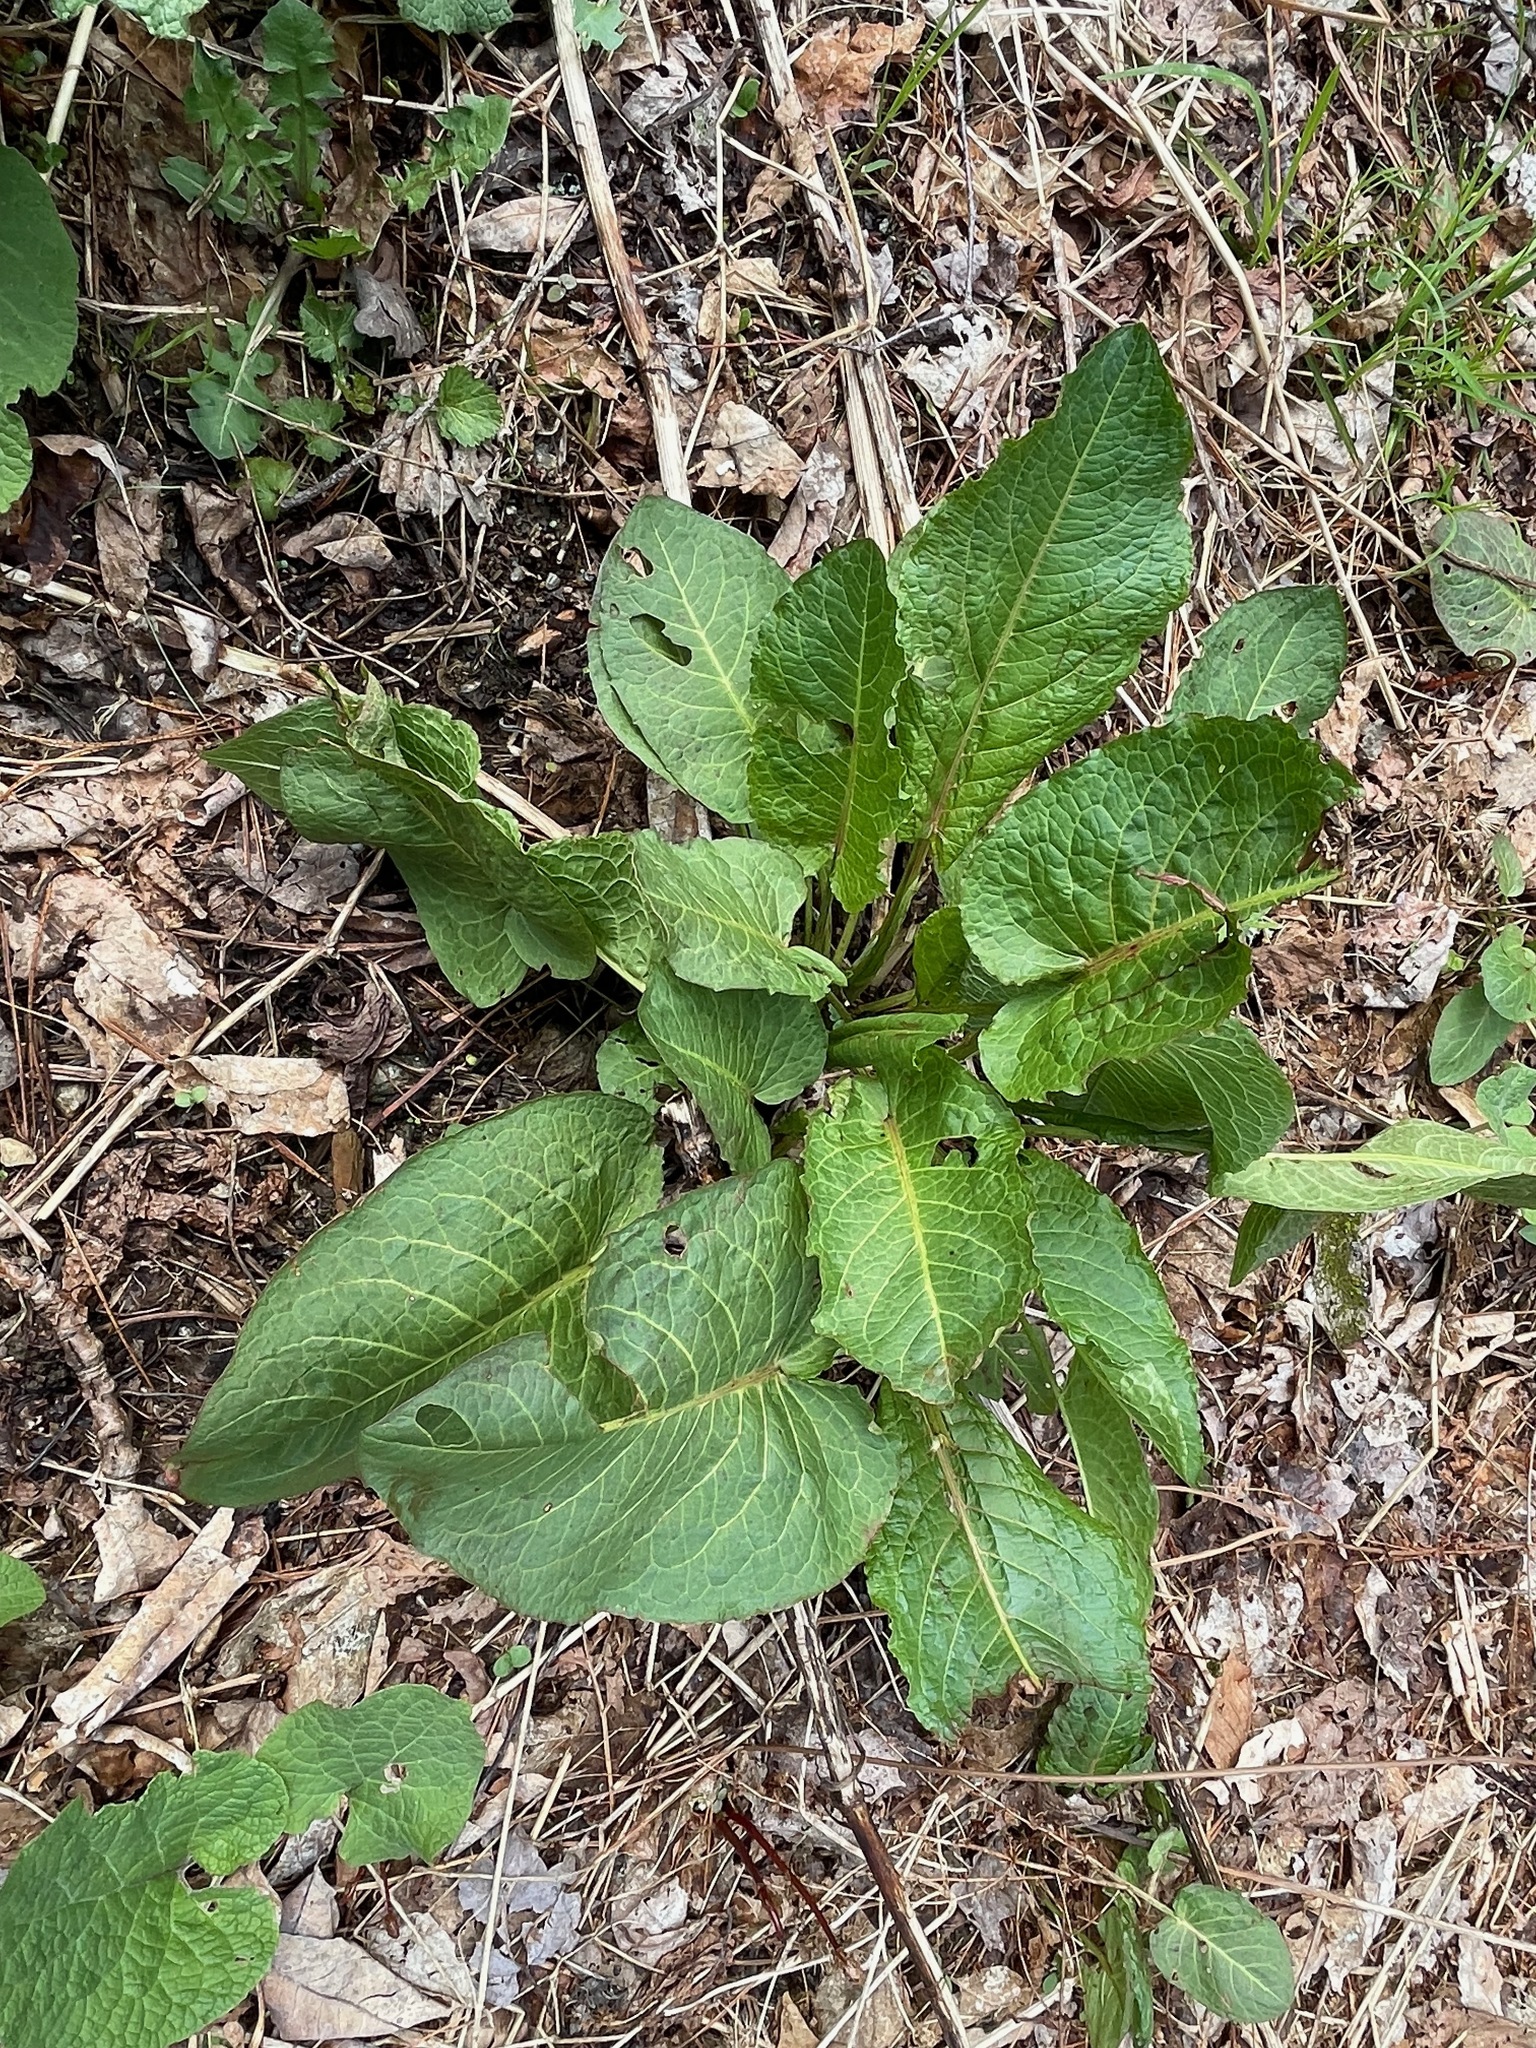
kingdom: Plantae
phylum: Tracheophyta
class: Magnoliopsida
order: Caryophyllales
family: Polygonaceae
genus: Rumex
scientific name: Rumex obtusifolius
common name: Bitter dock
